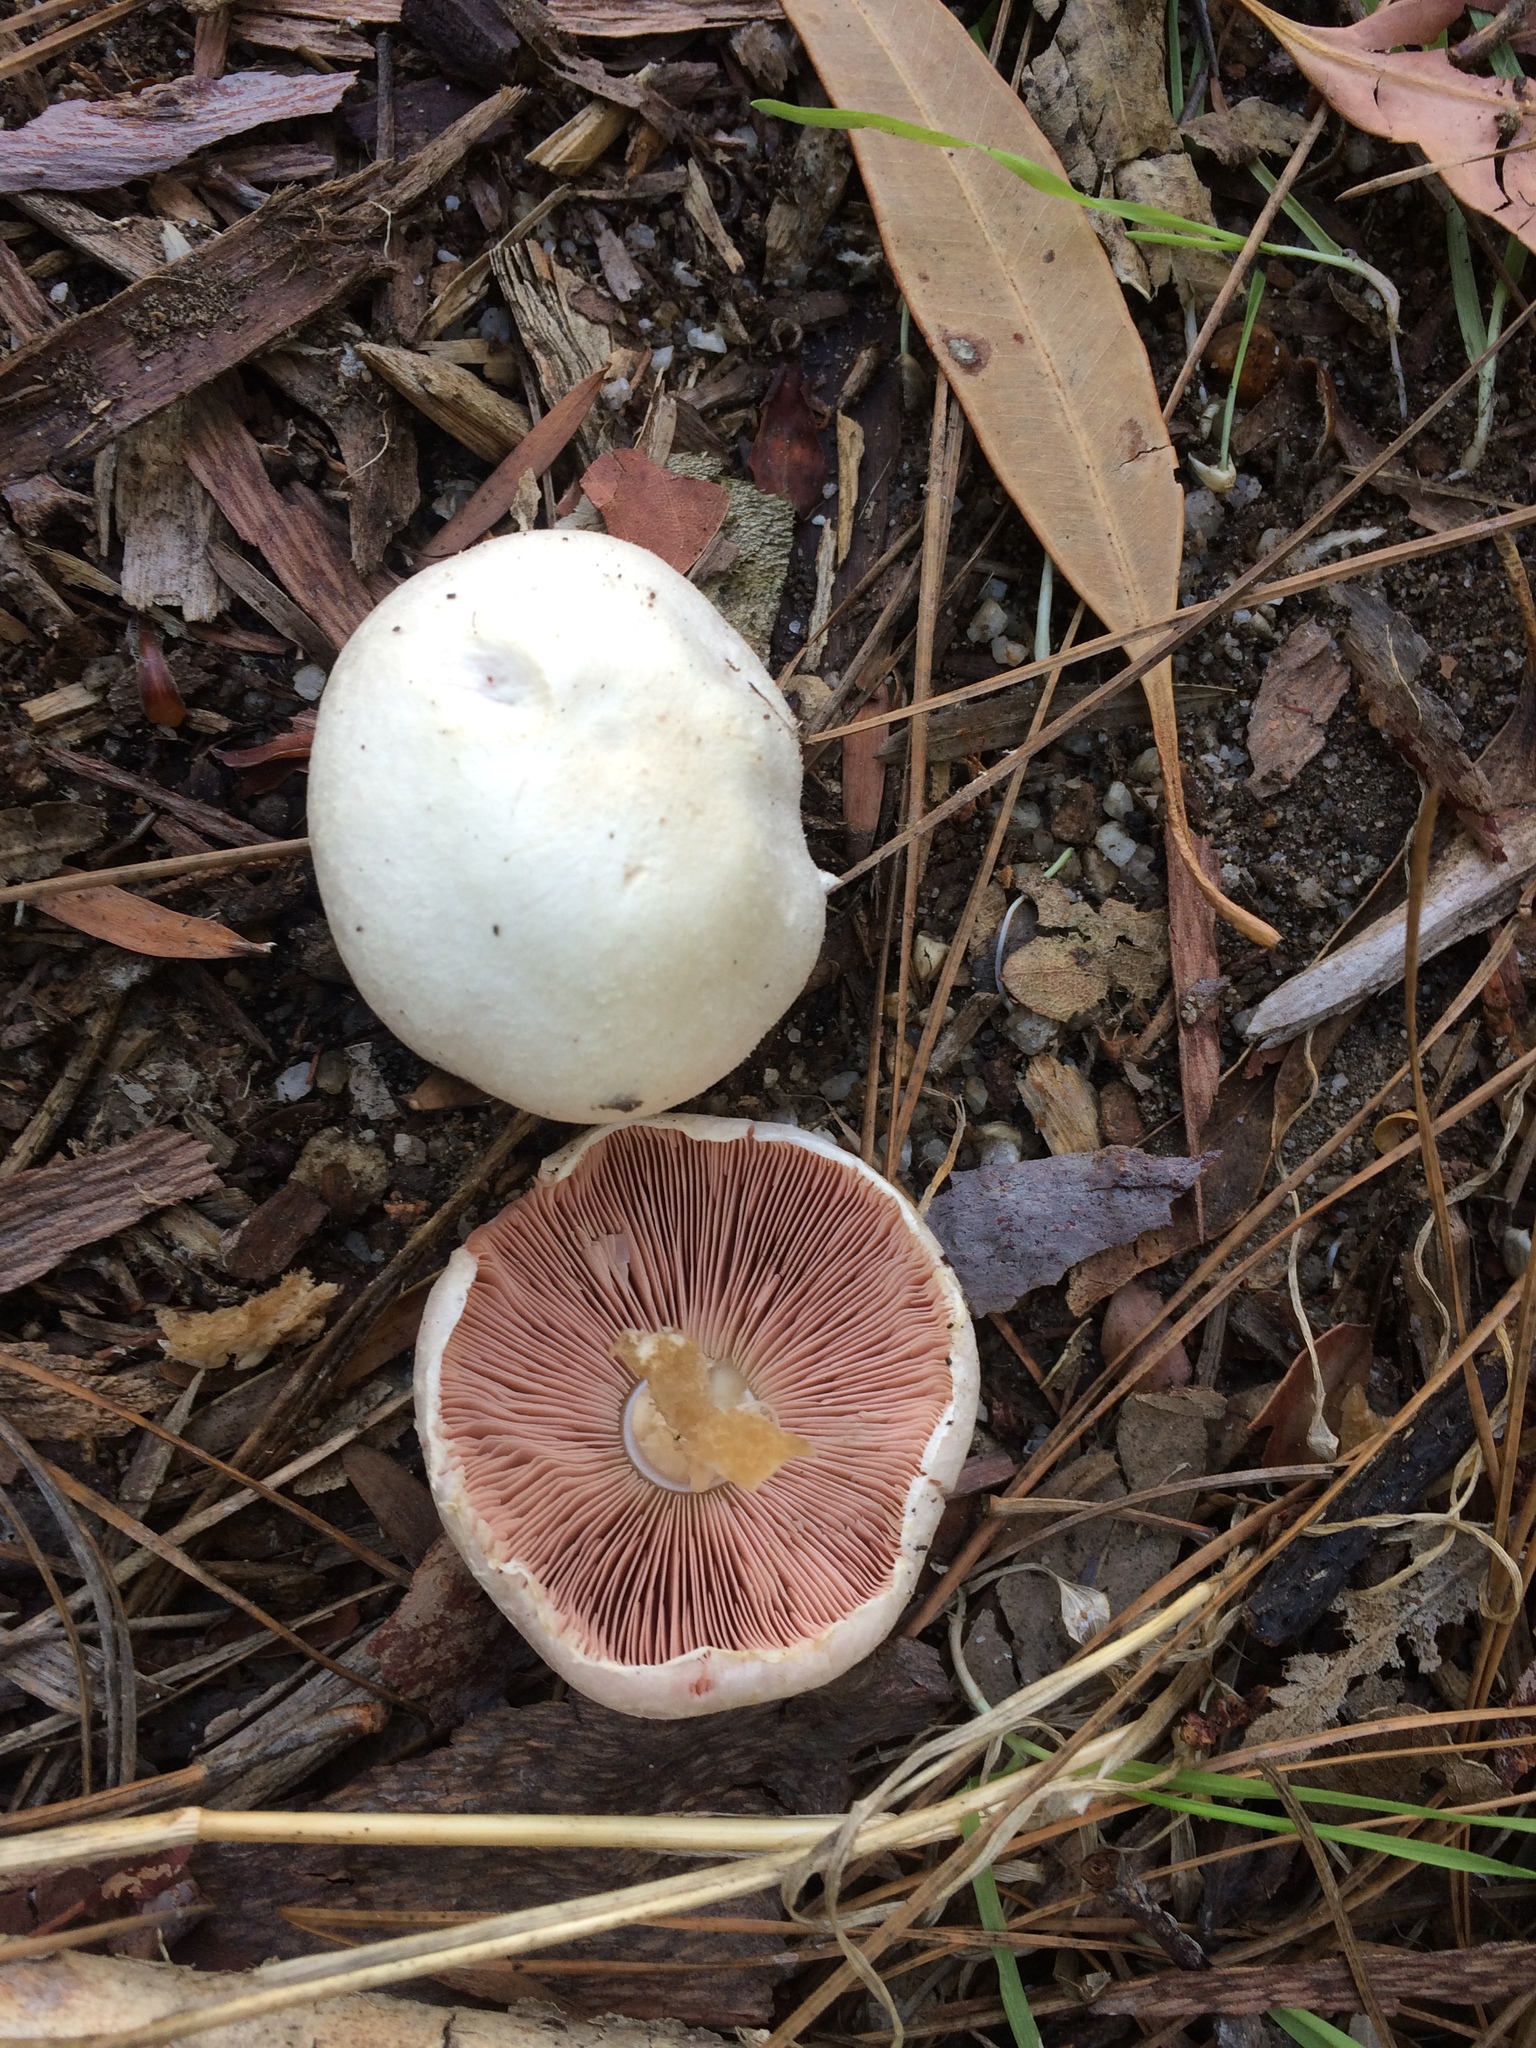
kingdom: Fungi
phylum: Basidiomycota
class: Agaricomycetes
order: Agaricales
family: Agaricaceae
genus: Agaricus
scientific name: Agaricus campestris
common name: Field mushroom
